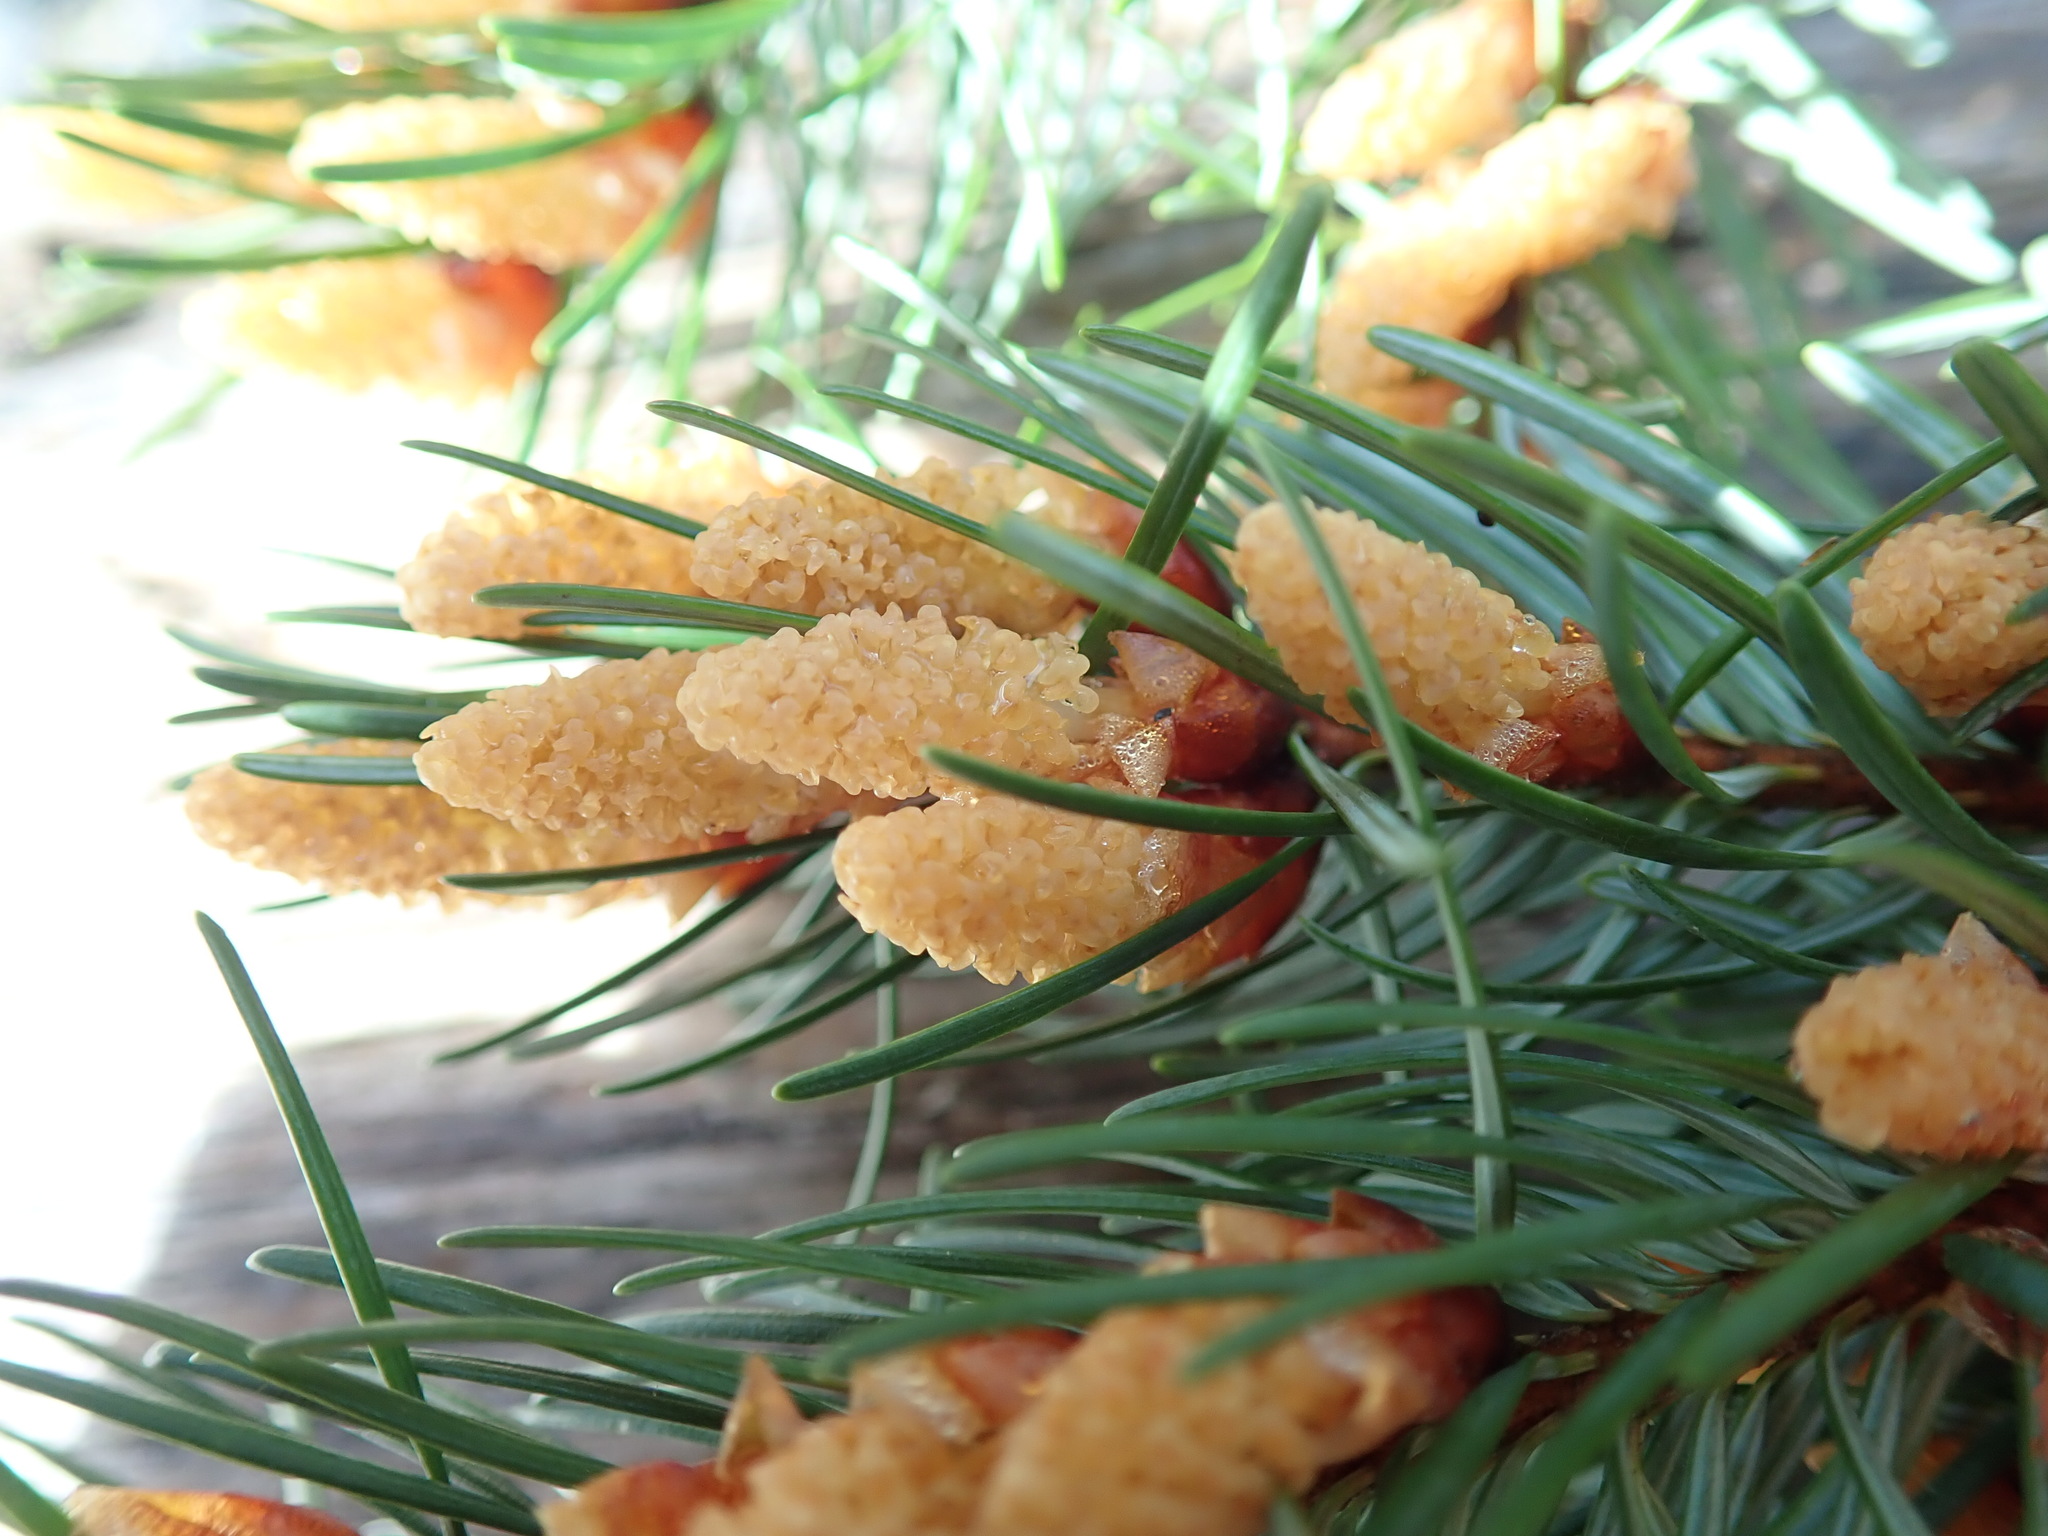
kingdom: Plantae
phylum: Tracheophyta
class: Pinopsida
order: Pinales
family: Pinaceae
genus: Pseudotsuga
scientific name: Pseudotsuga menziesii
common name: Douglas fir
